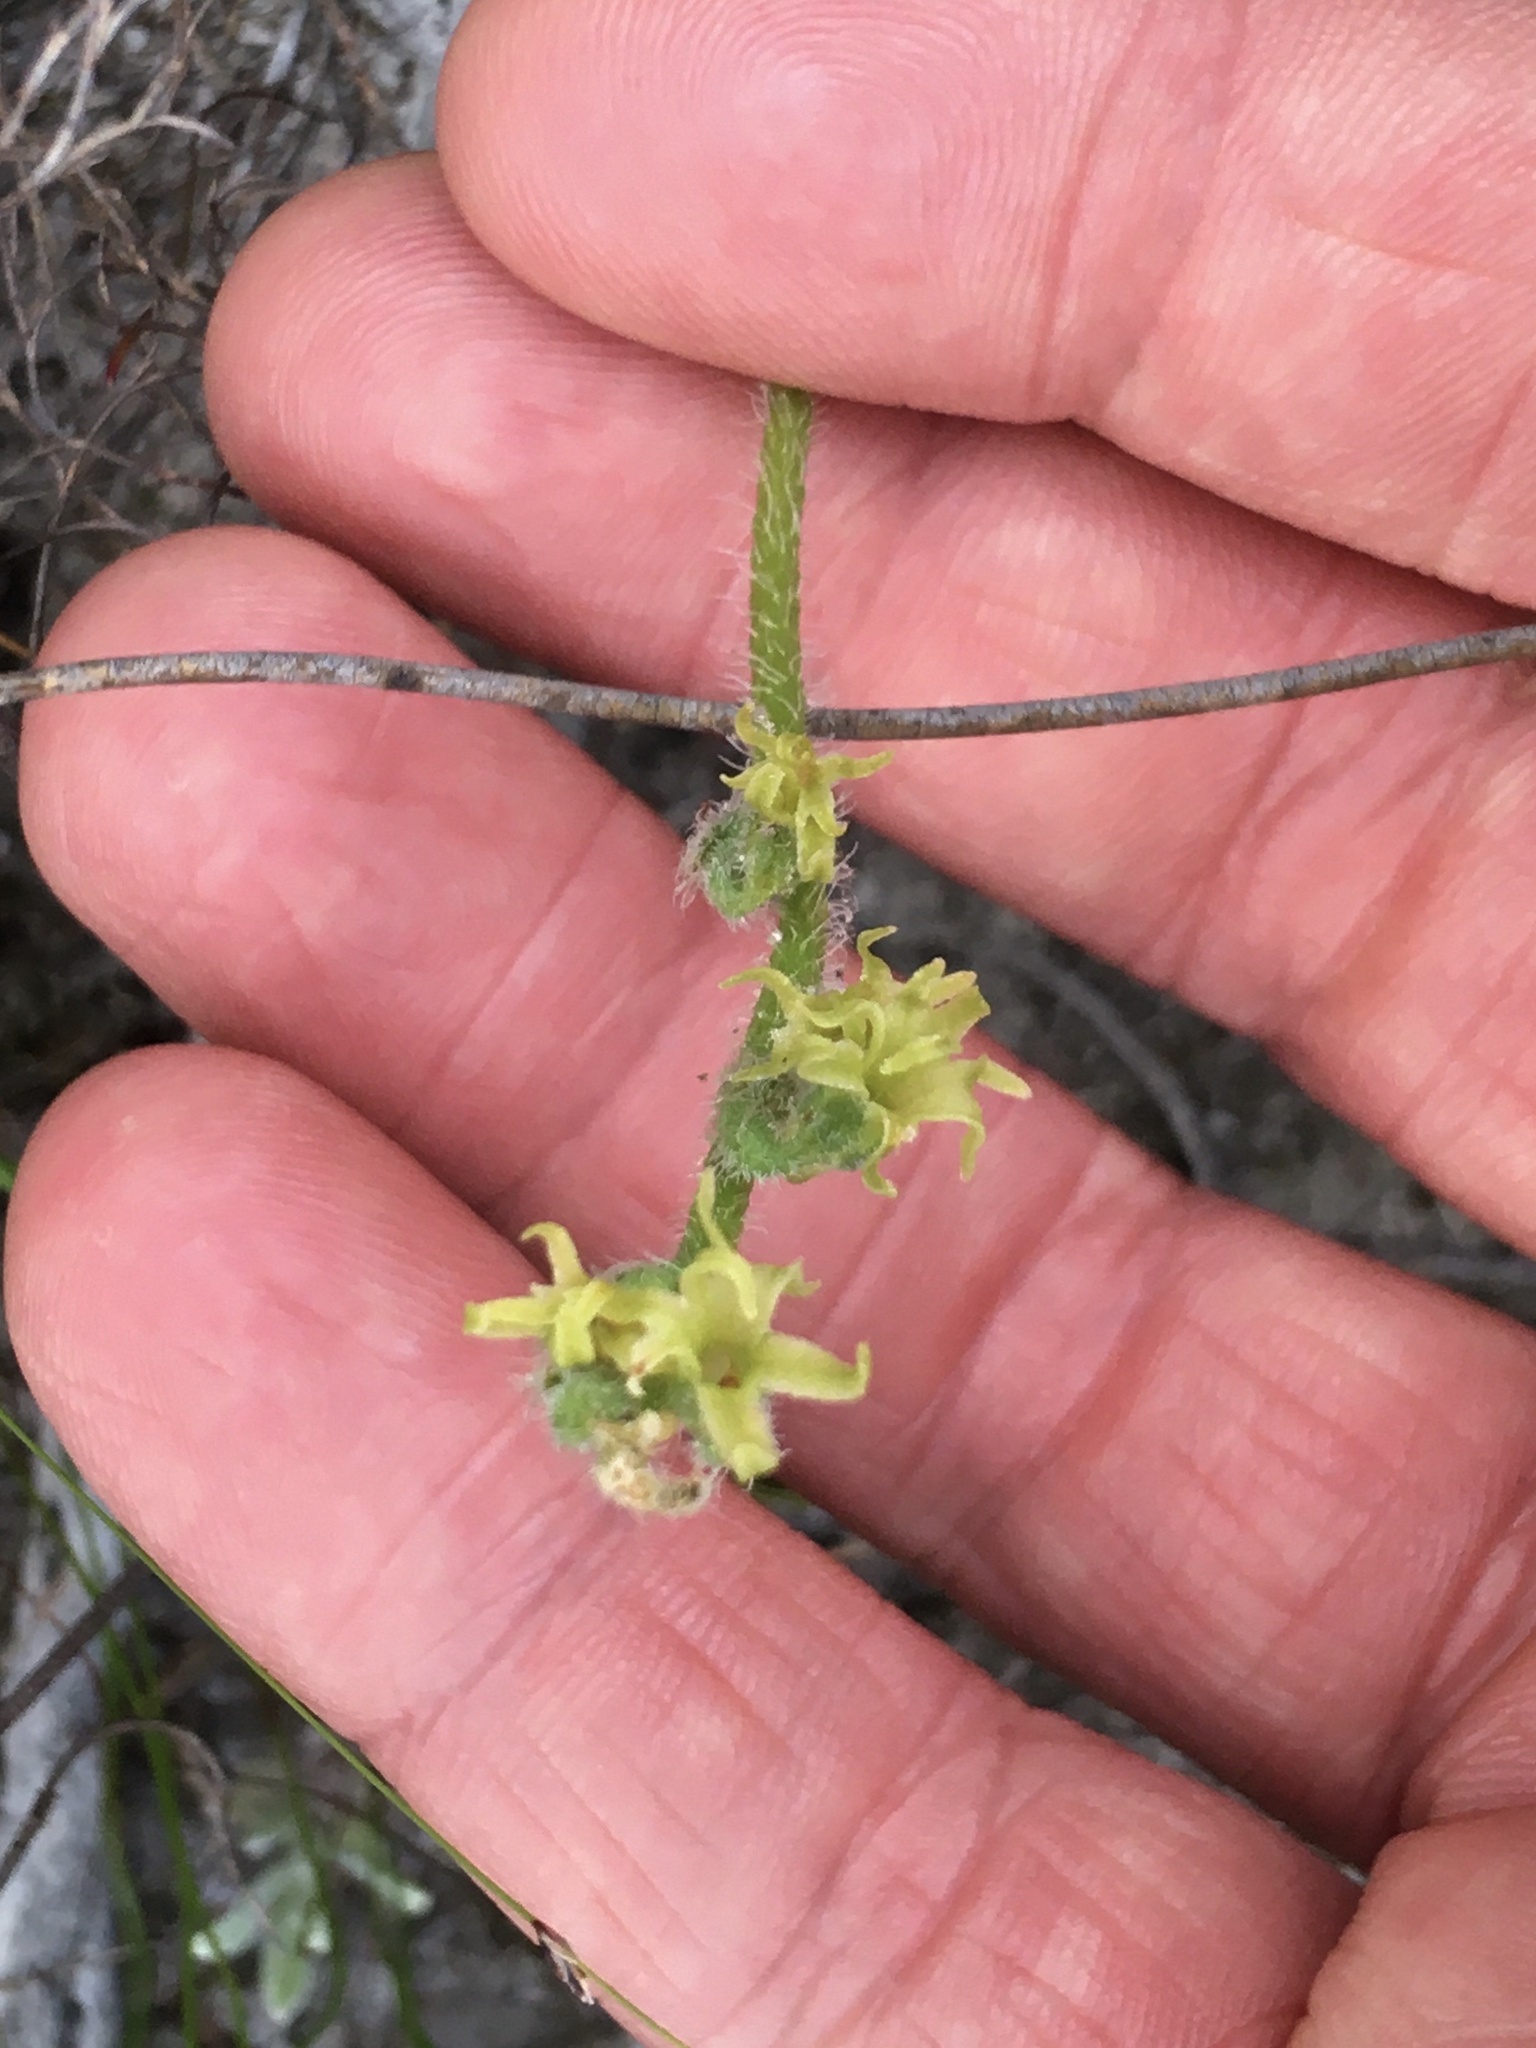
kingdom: Plantae
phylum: Tracheophyta
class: Liliopsida
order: Asparagales
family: Orchidaceae
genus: Holothrix
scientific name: Holothrix cernua
